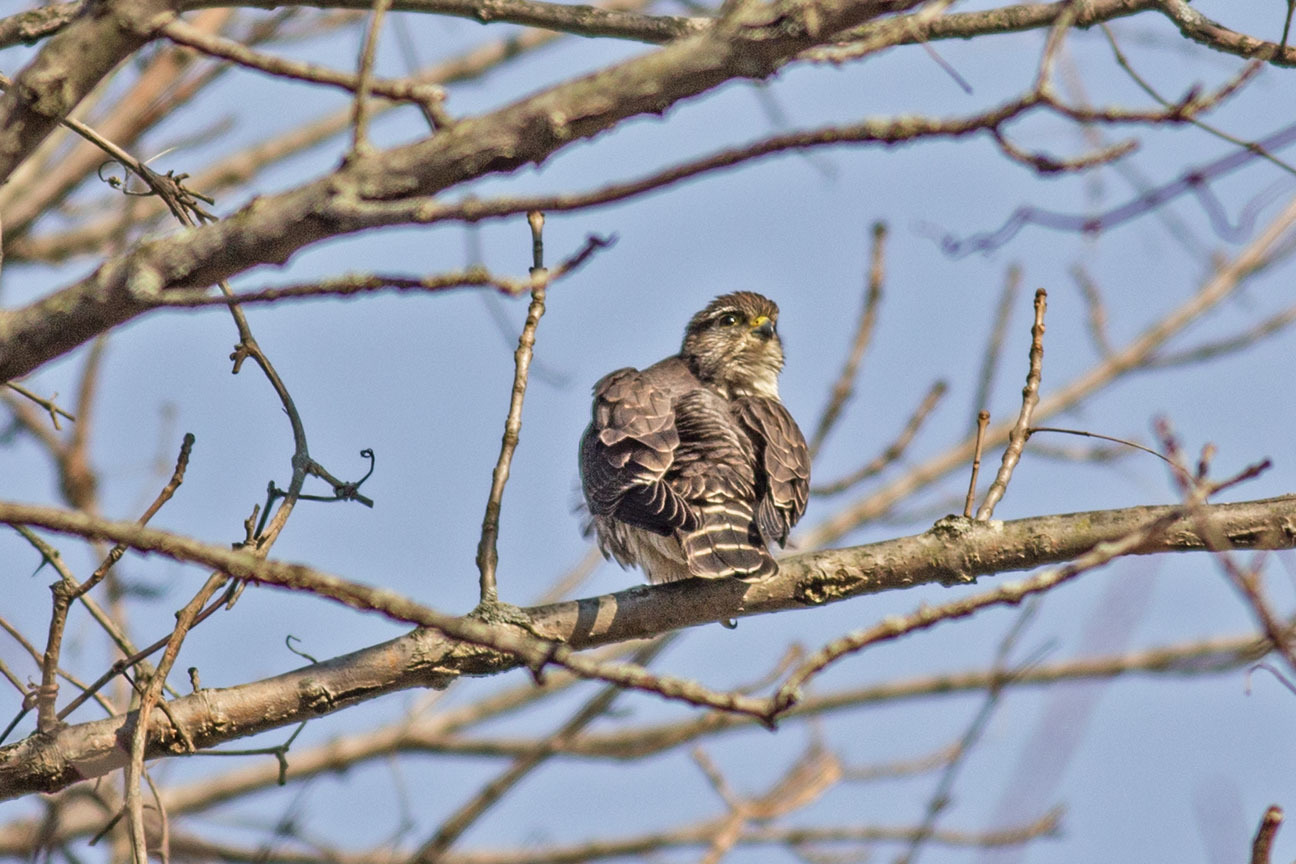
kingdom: Animalia
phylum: Chordata
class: Aves
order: Falconiformes
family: Falconidae
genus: Falco
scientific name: Falco columbarius
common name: Merlin
